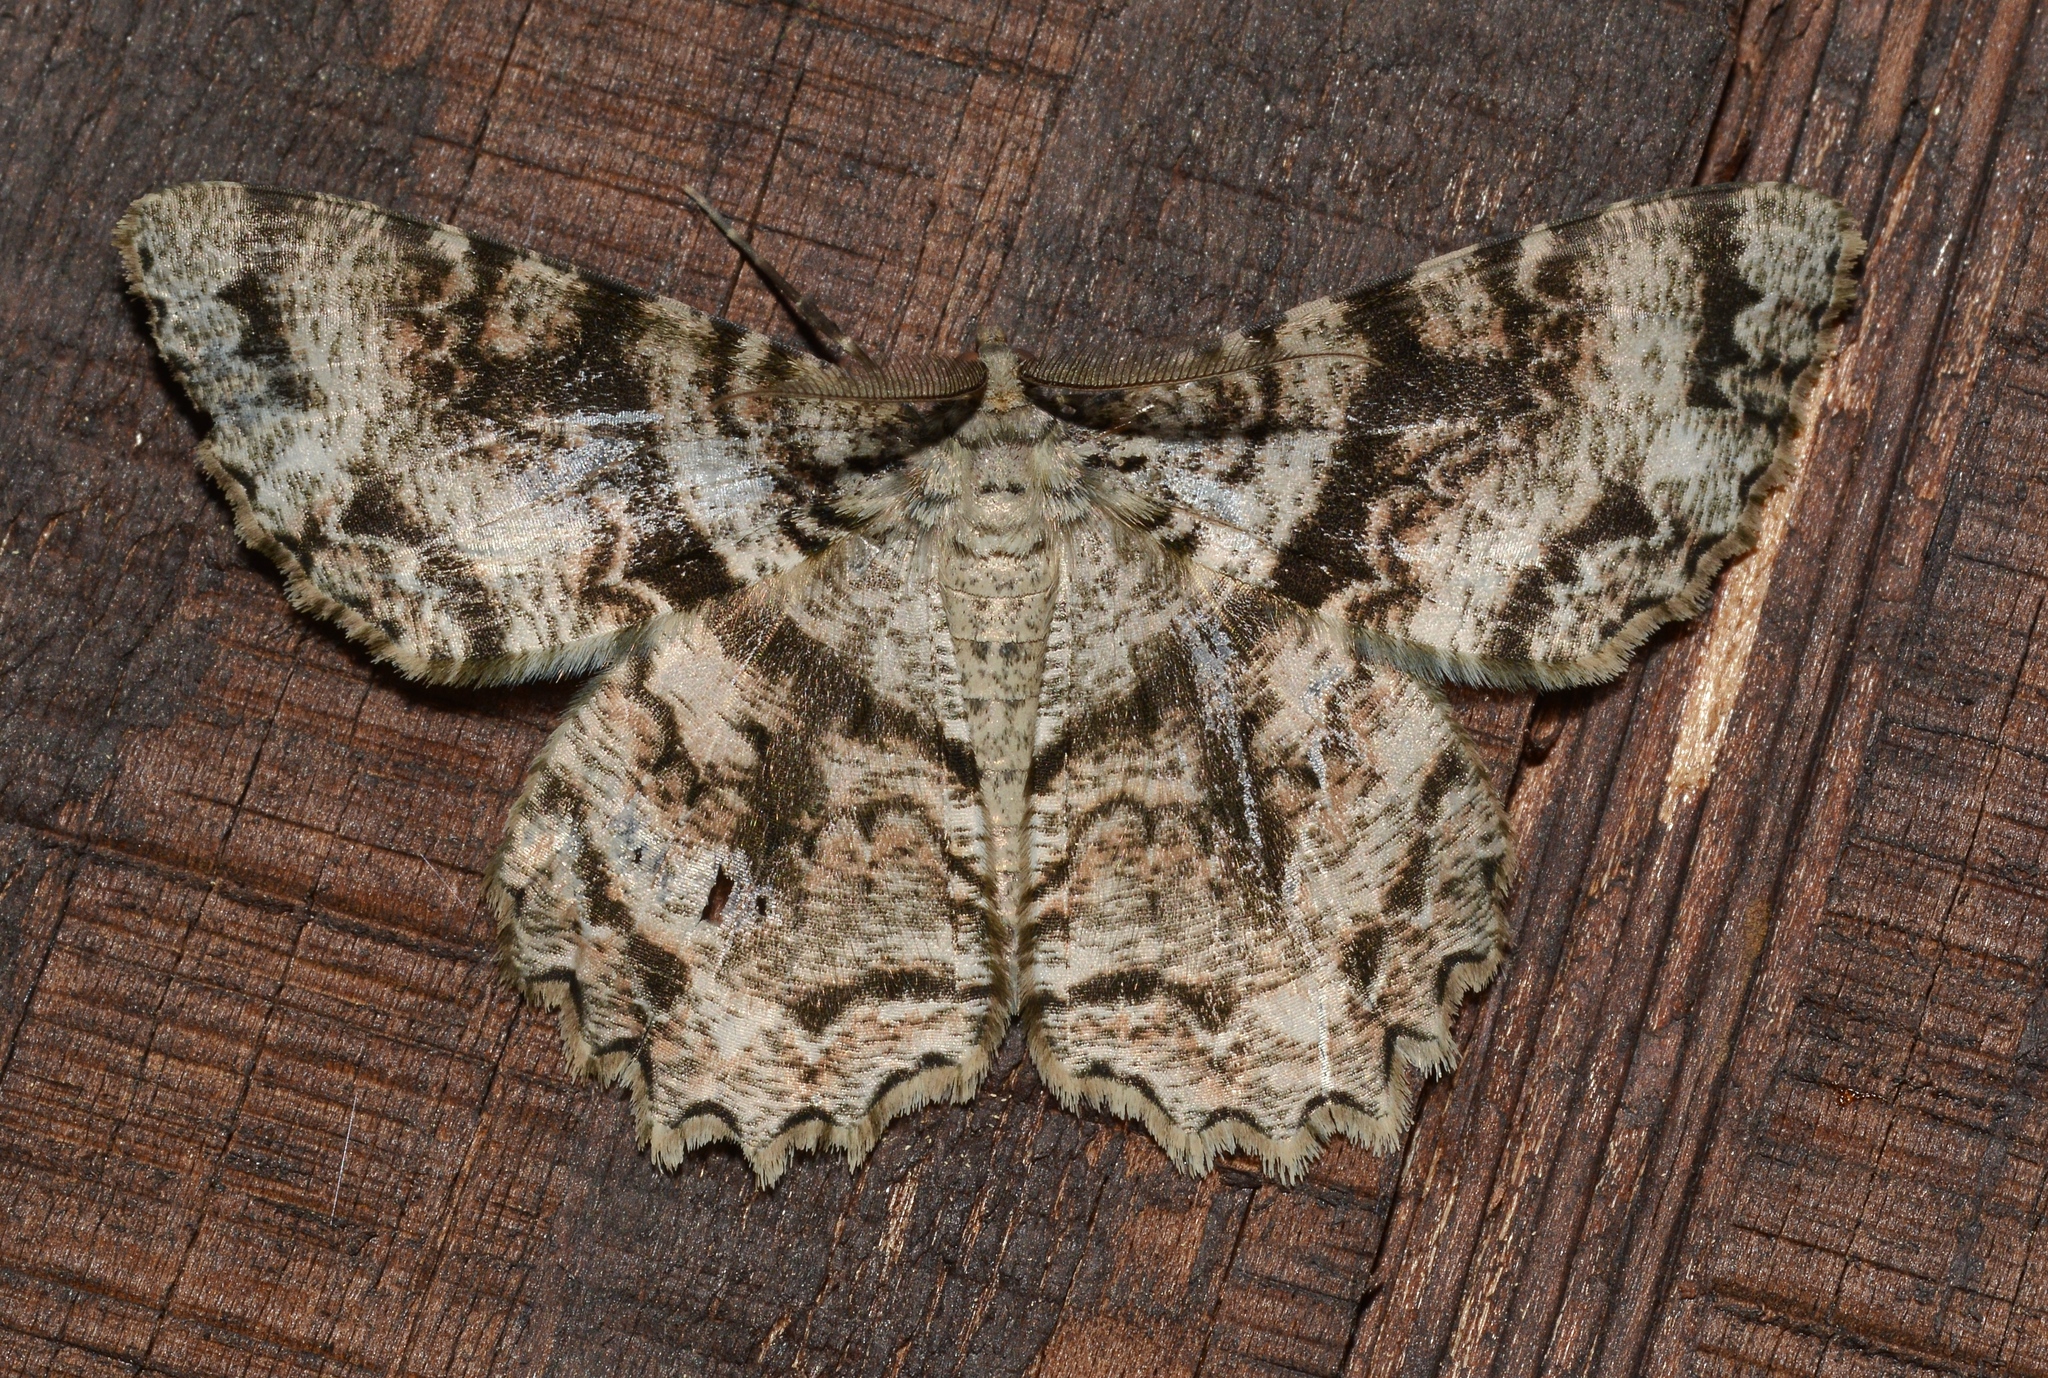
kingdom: Animalia
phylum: Arthropoda
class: Insecta
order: Lepidoptera
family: Geometridae
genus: Epimecis
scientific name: Epimecis hortaria
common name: Tulip-tree beauty
